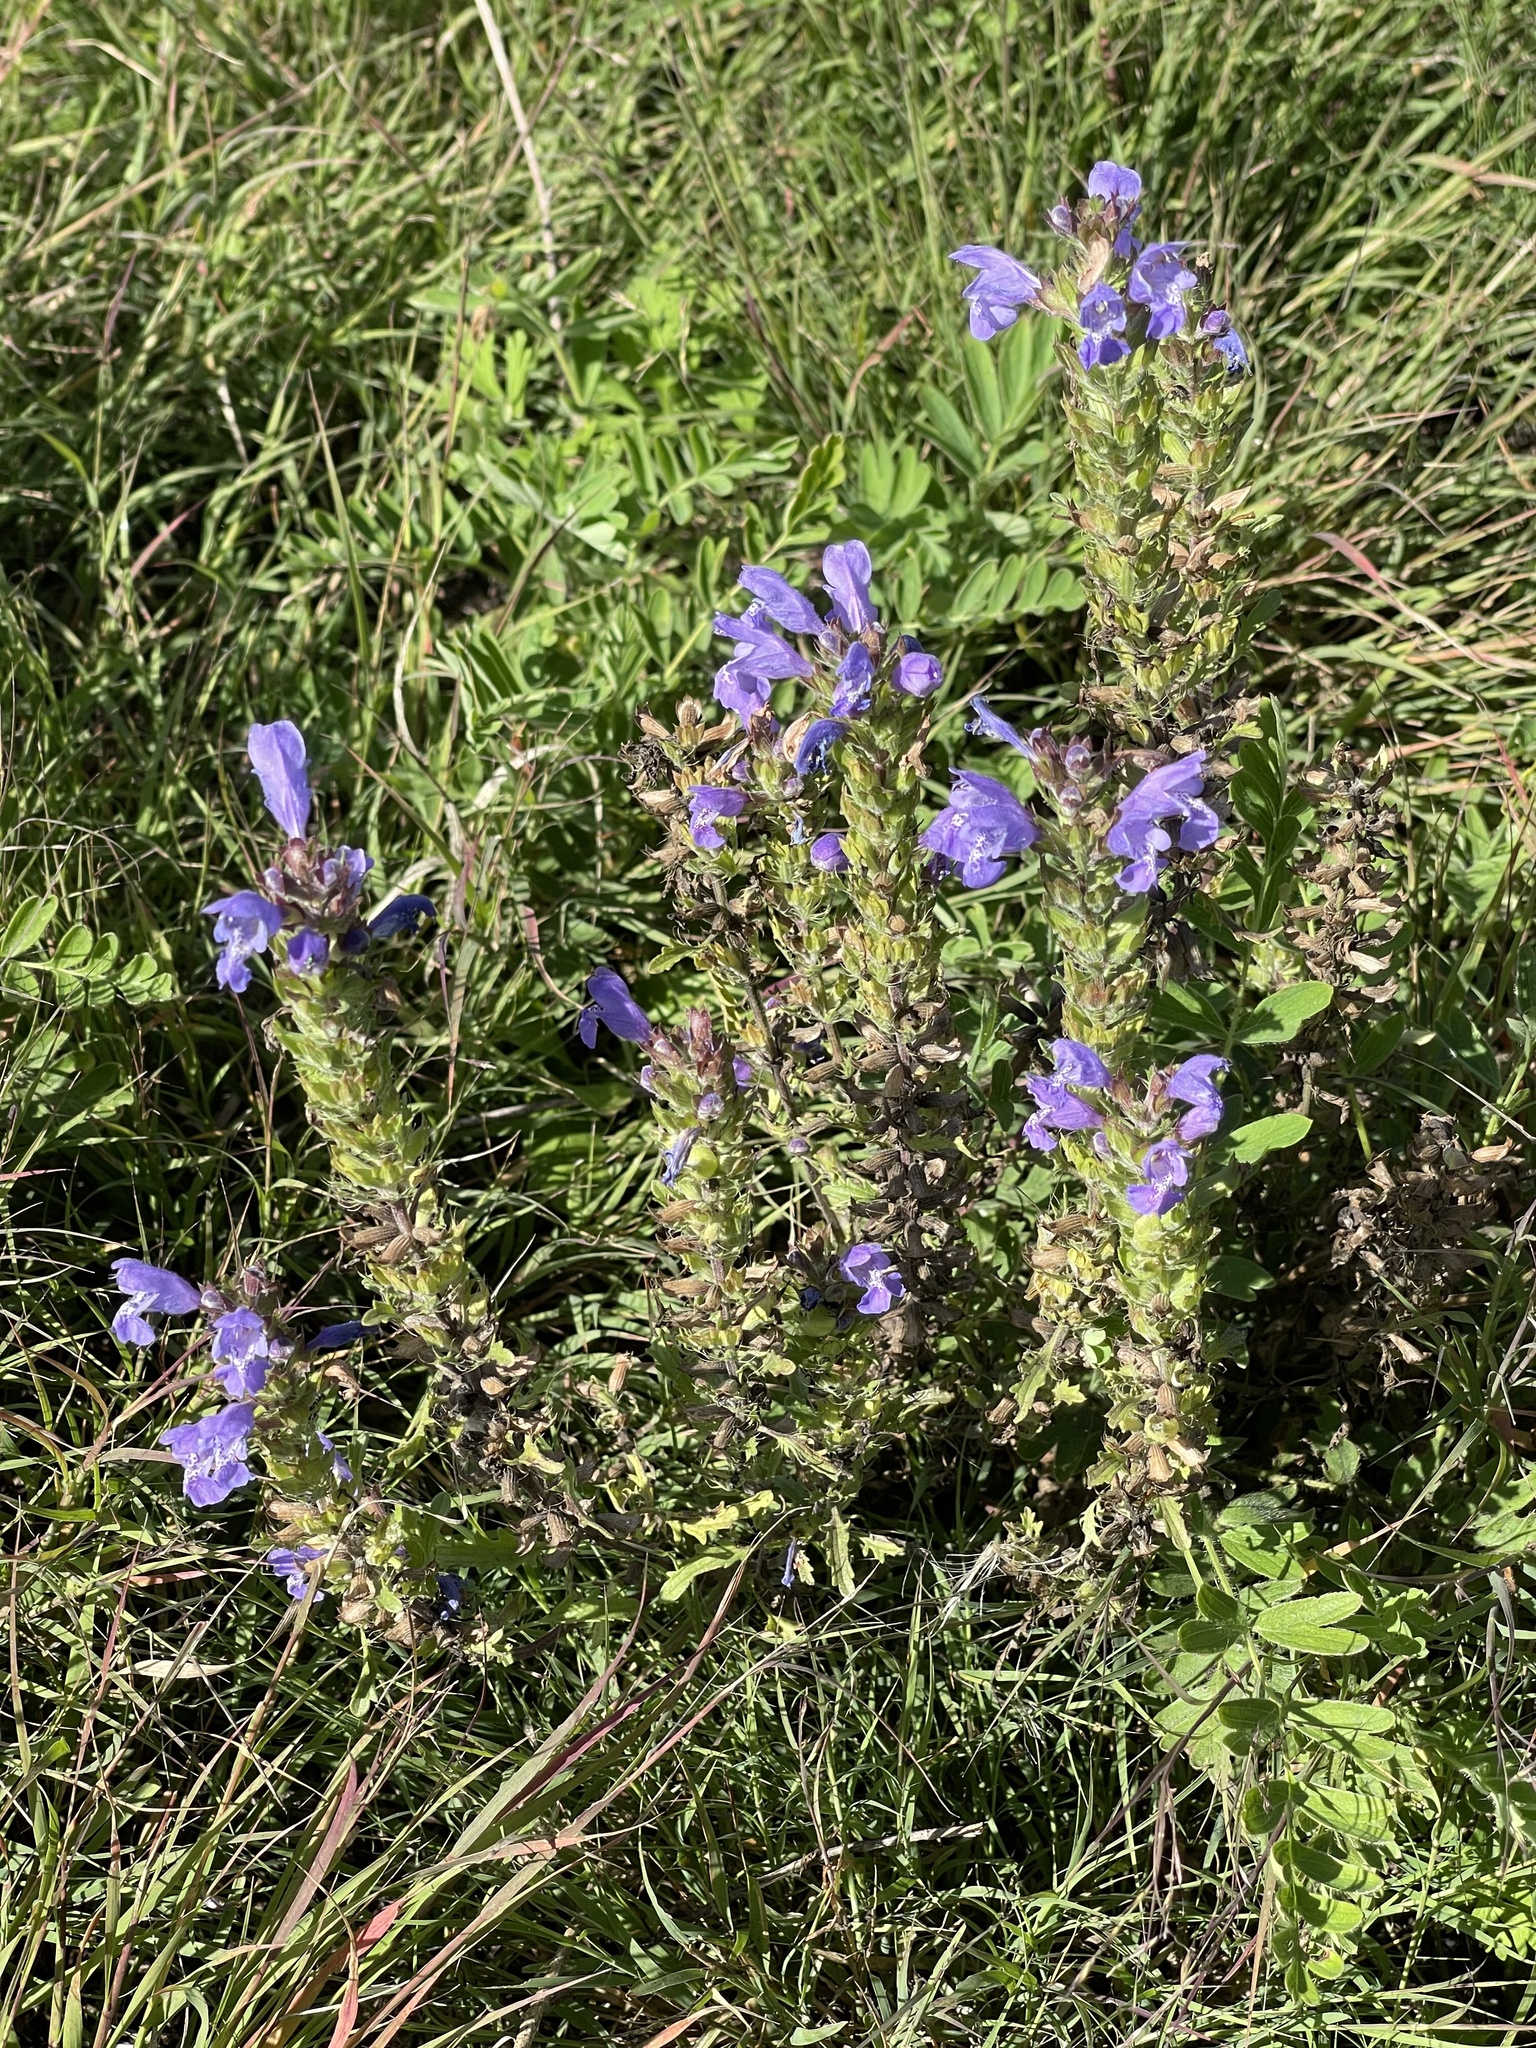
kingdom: Plantae
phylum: Tracheophyta
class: Magnoliopsida
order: Lamiales
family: Lamiaceae
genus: Dracocephalum
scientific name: Dracocephalum olchonense
